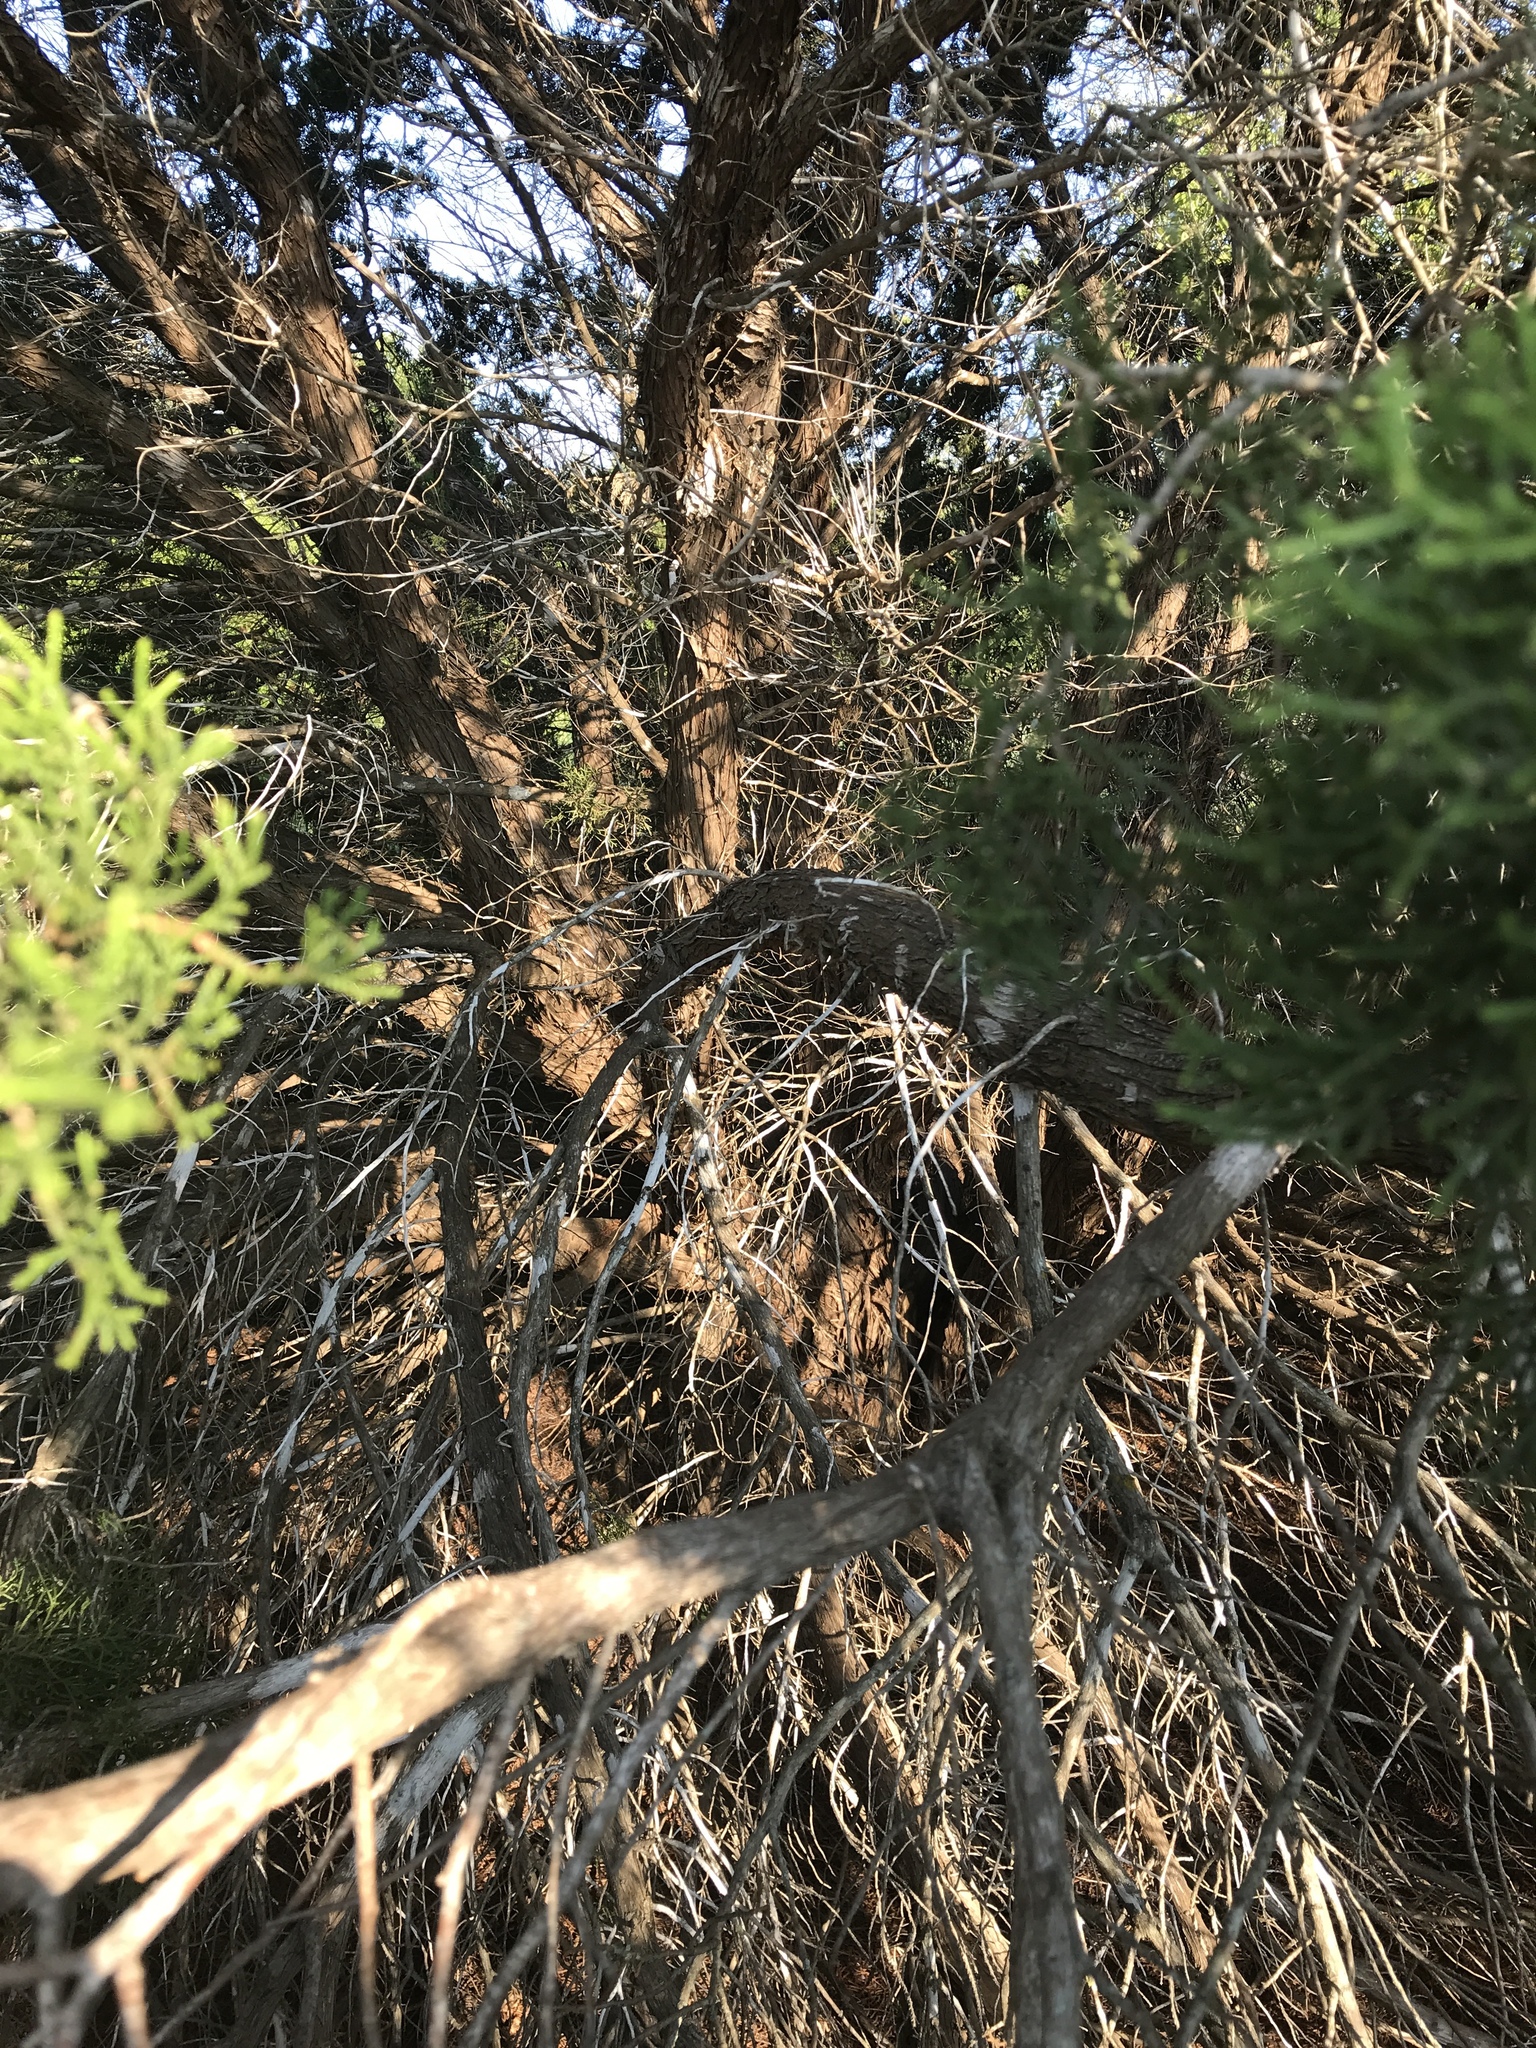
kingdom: Plantae
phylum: Tracheophyta
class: Pinopsida
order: Pinales
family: Cupressaceae
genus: Juniperus
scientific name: Juniperus ashei
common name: Mexican juniper
